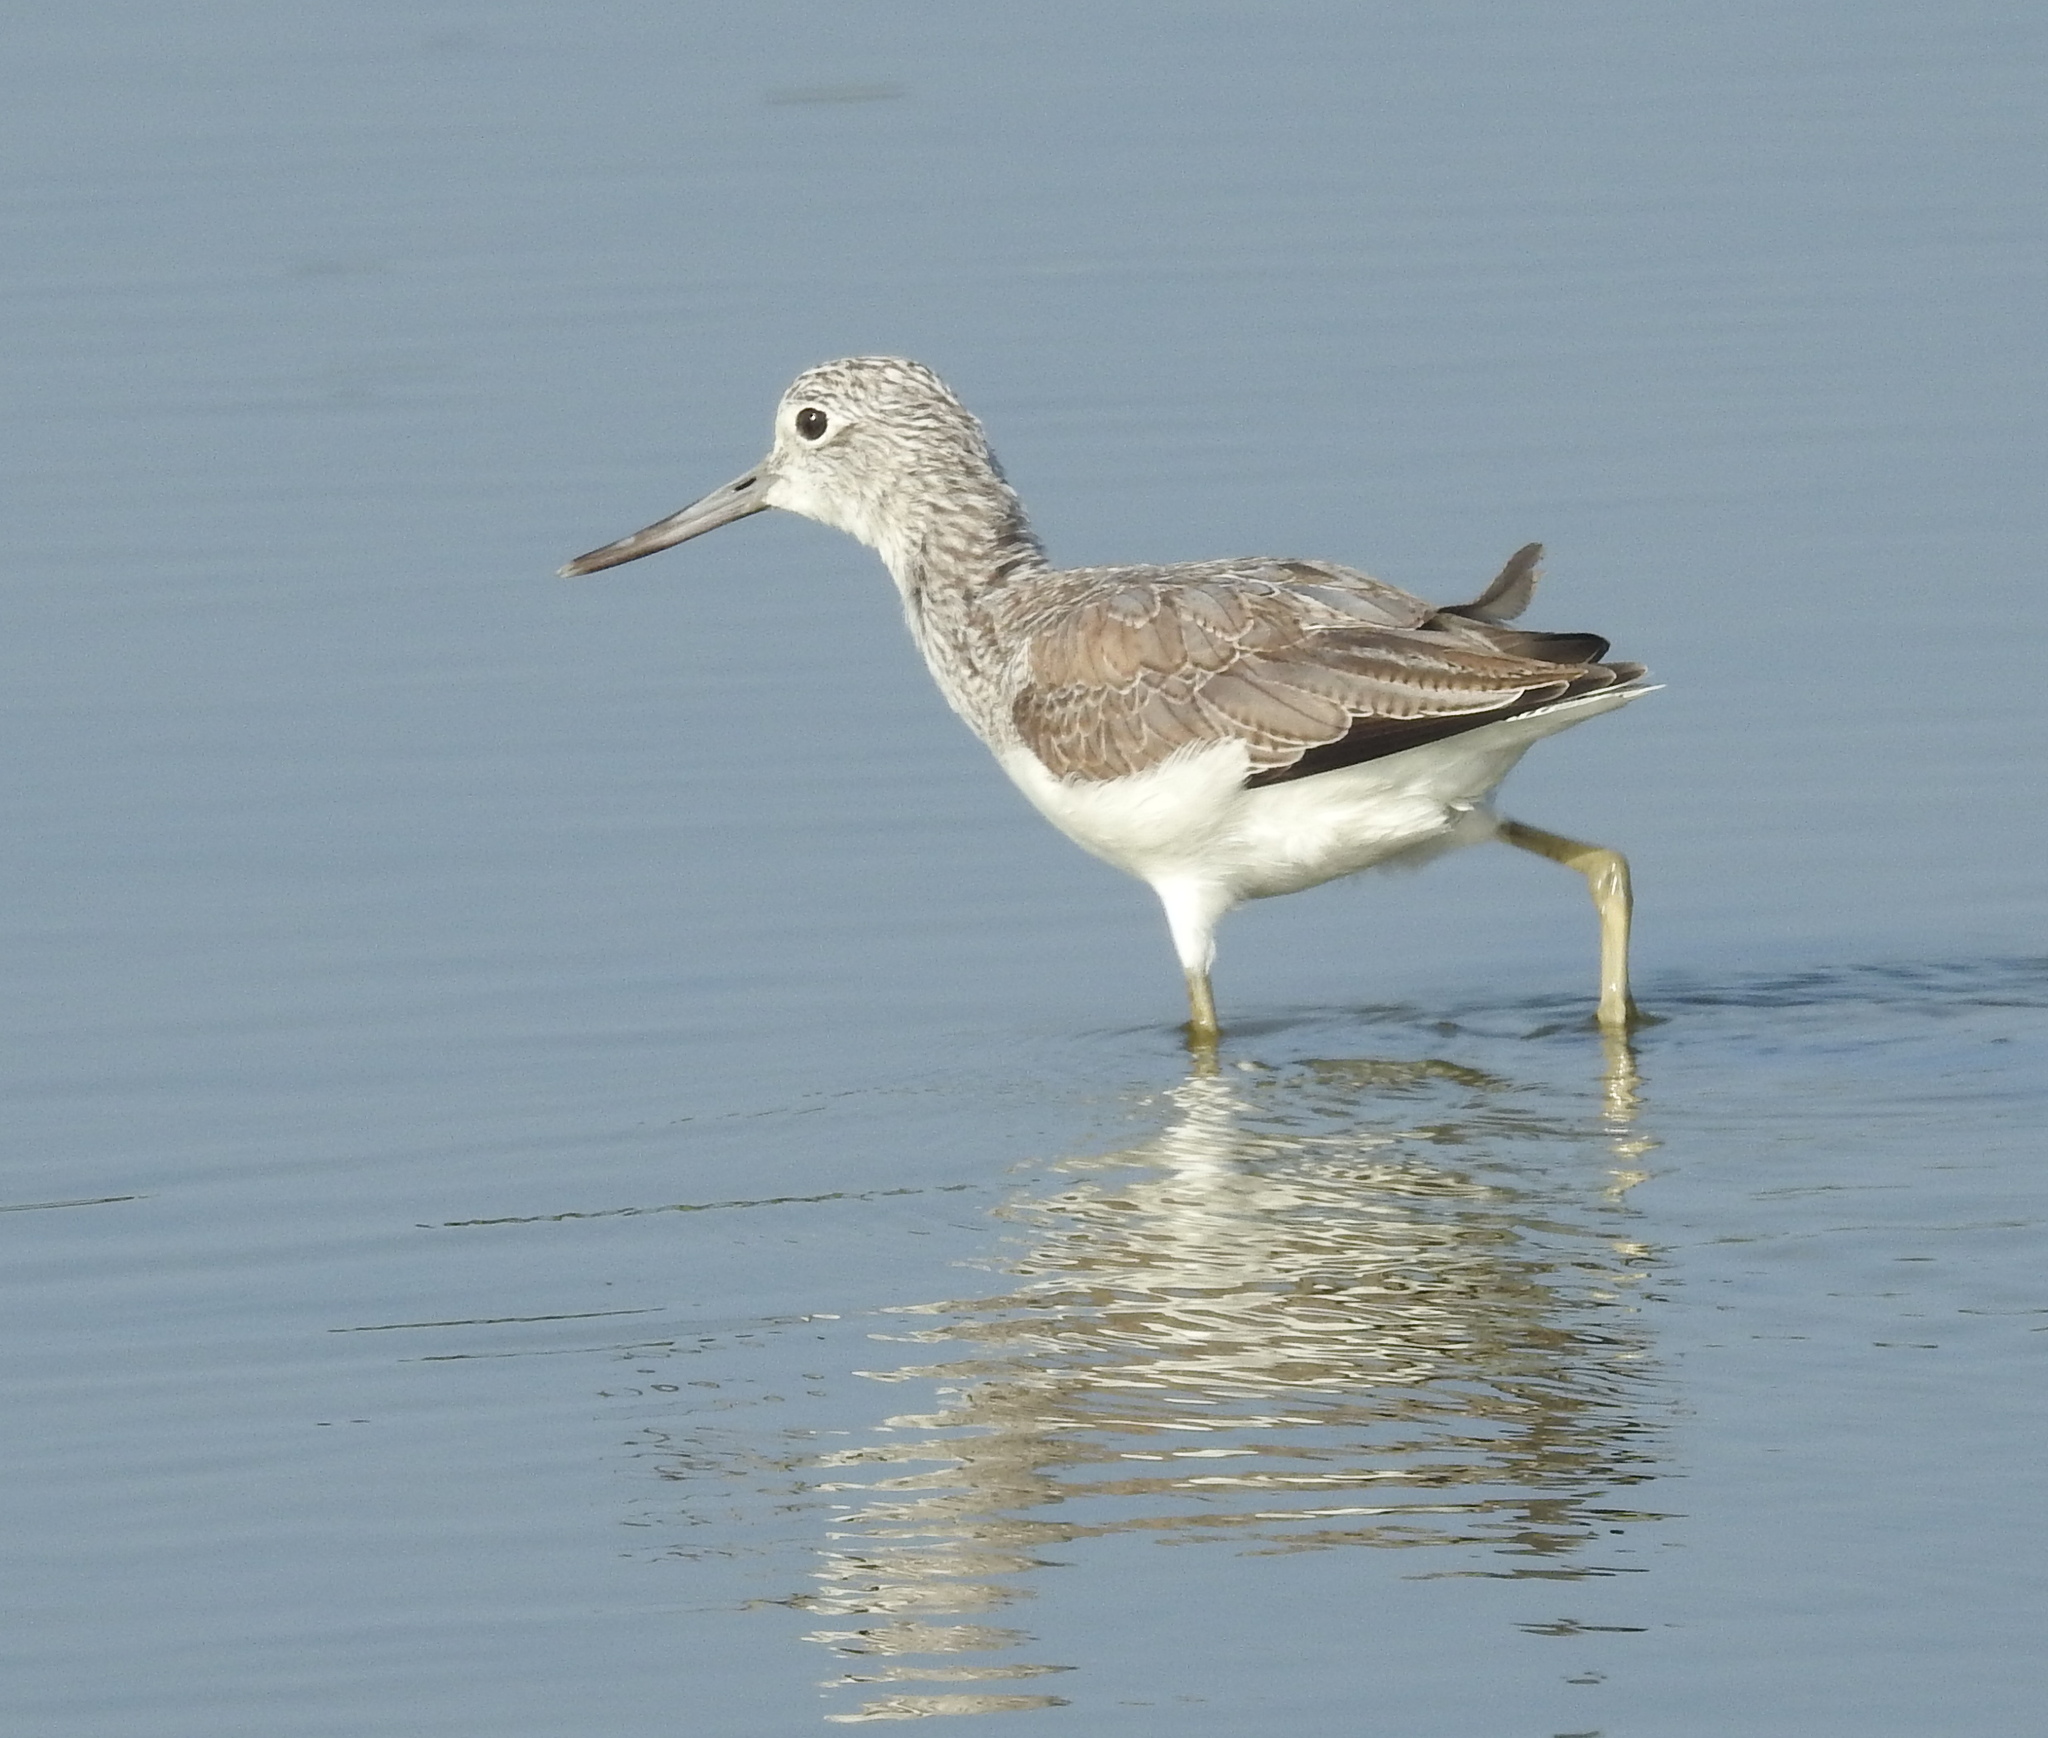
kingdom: Animalia
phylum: Chordata
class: Aves
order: Charadriiformes
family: Scolopacidae
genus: Tringa
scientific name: Tringa nebularia
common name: Common greenshank
